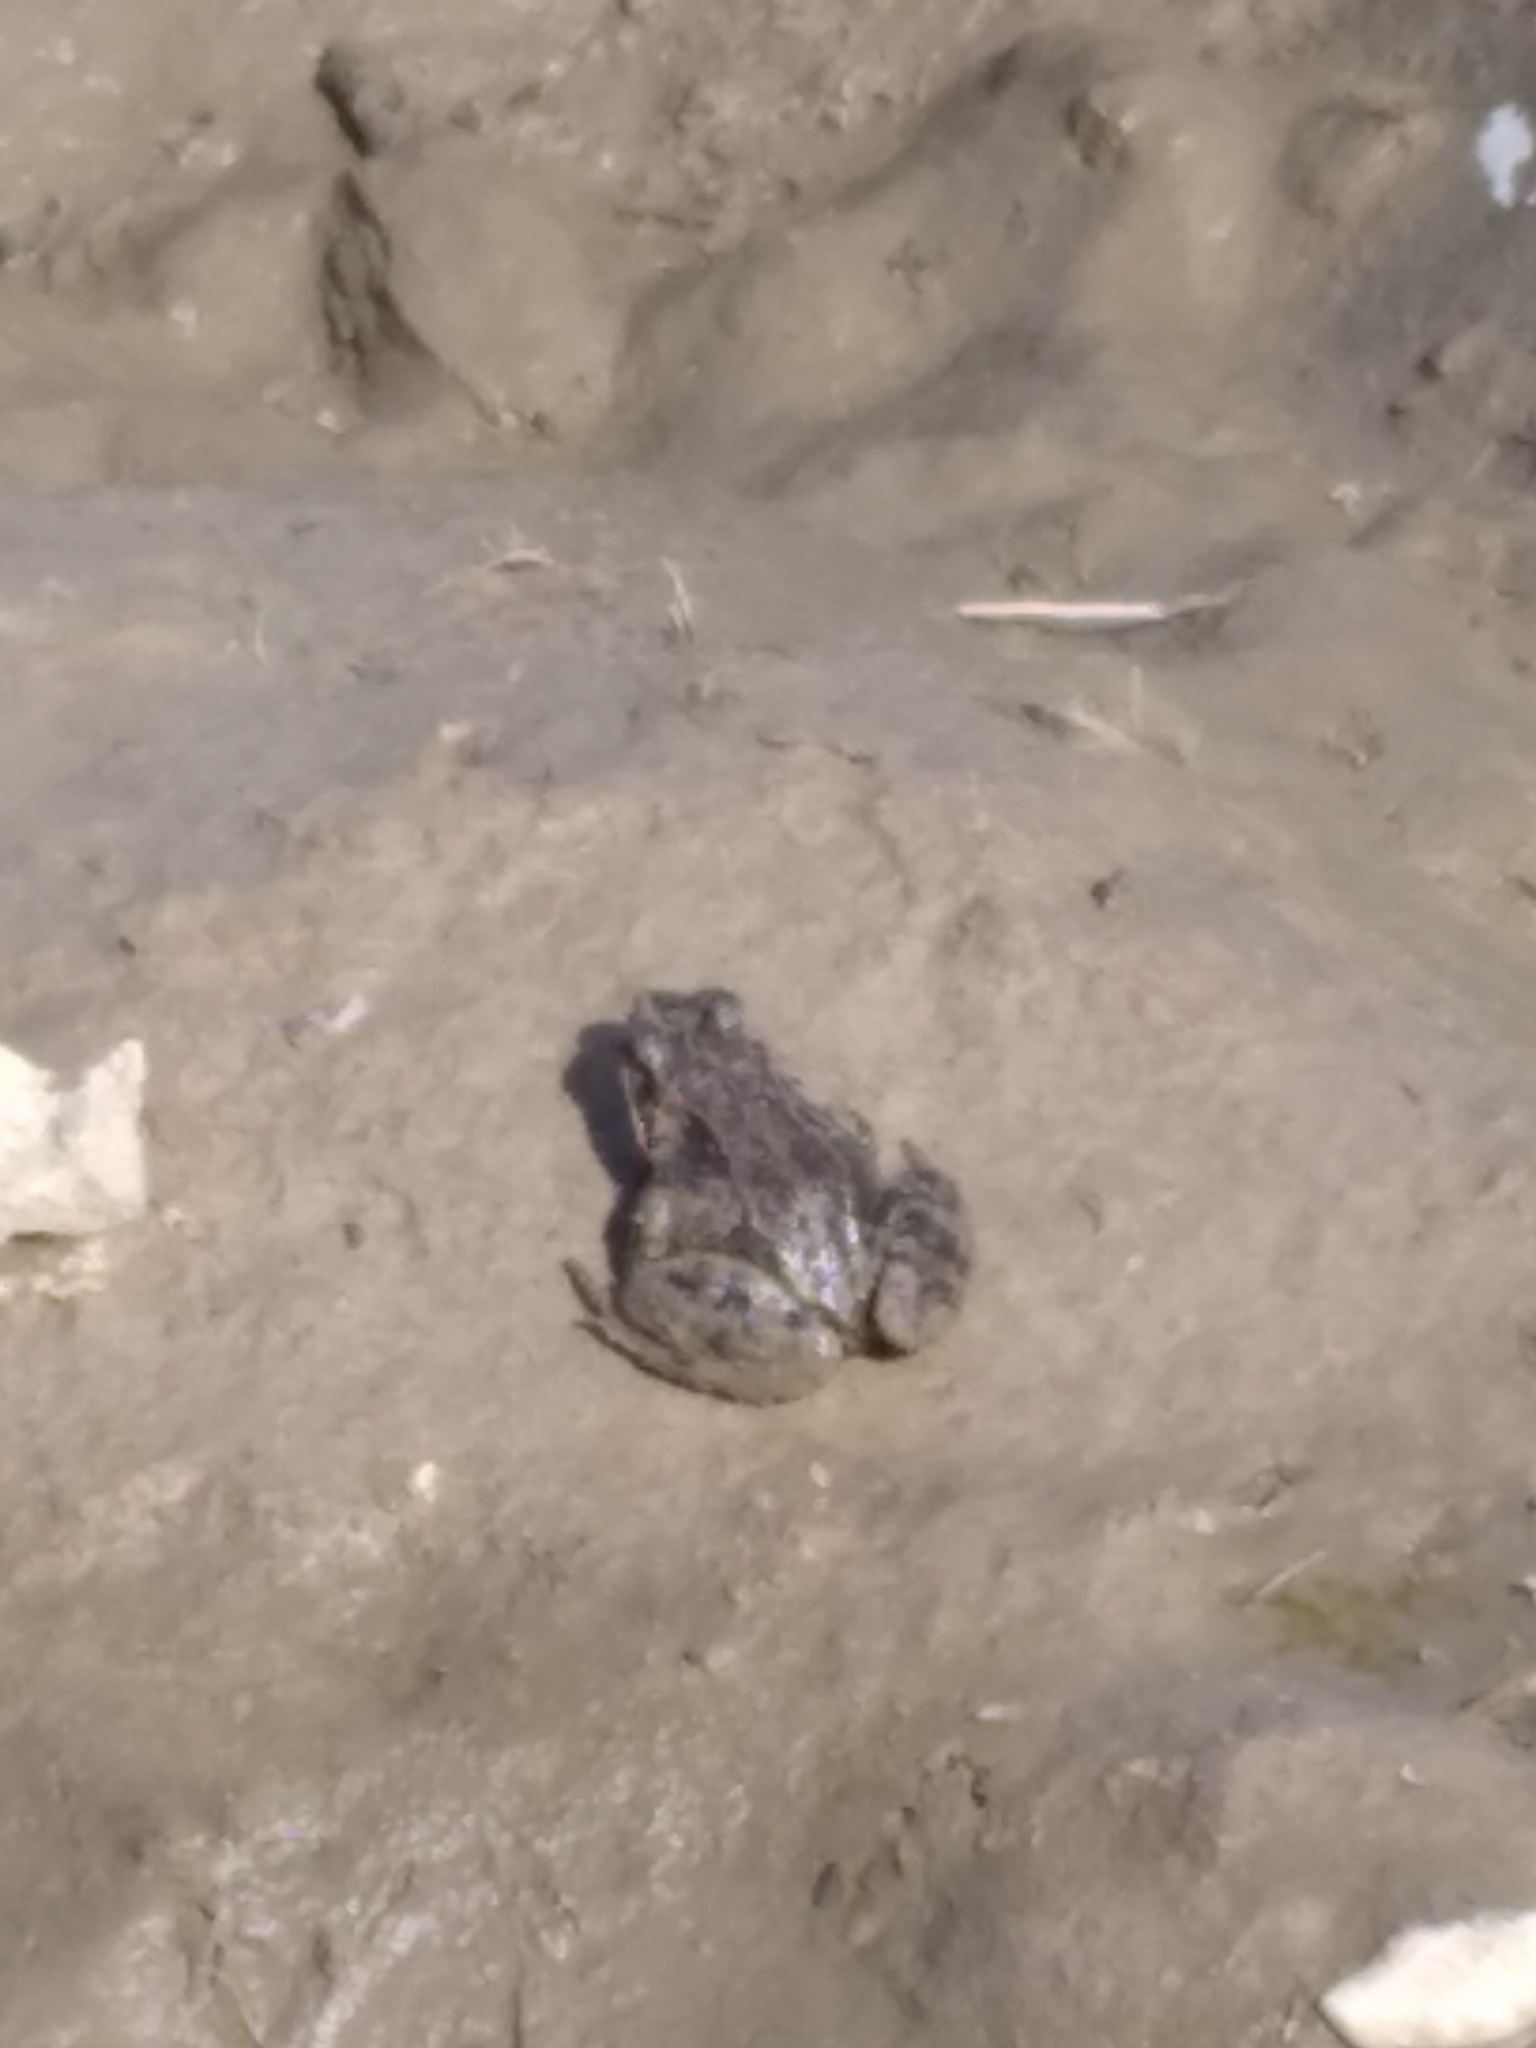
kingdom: Animalia
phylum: Chordata
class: Amphibia
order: Anura
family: Ranidae
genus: Rana
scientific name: Rana arvalis
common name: Moor frog
